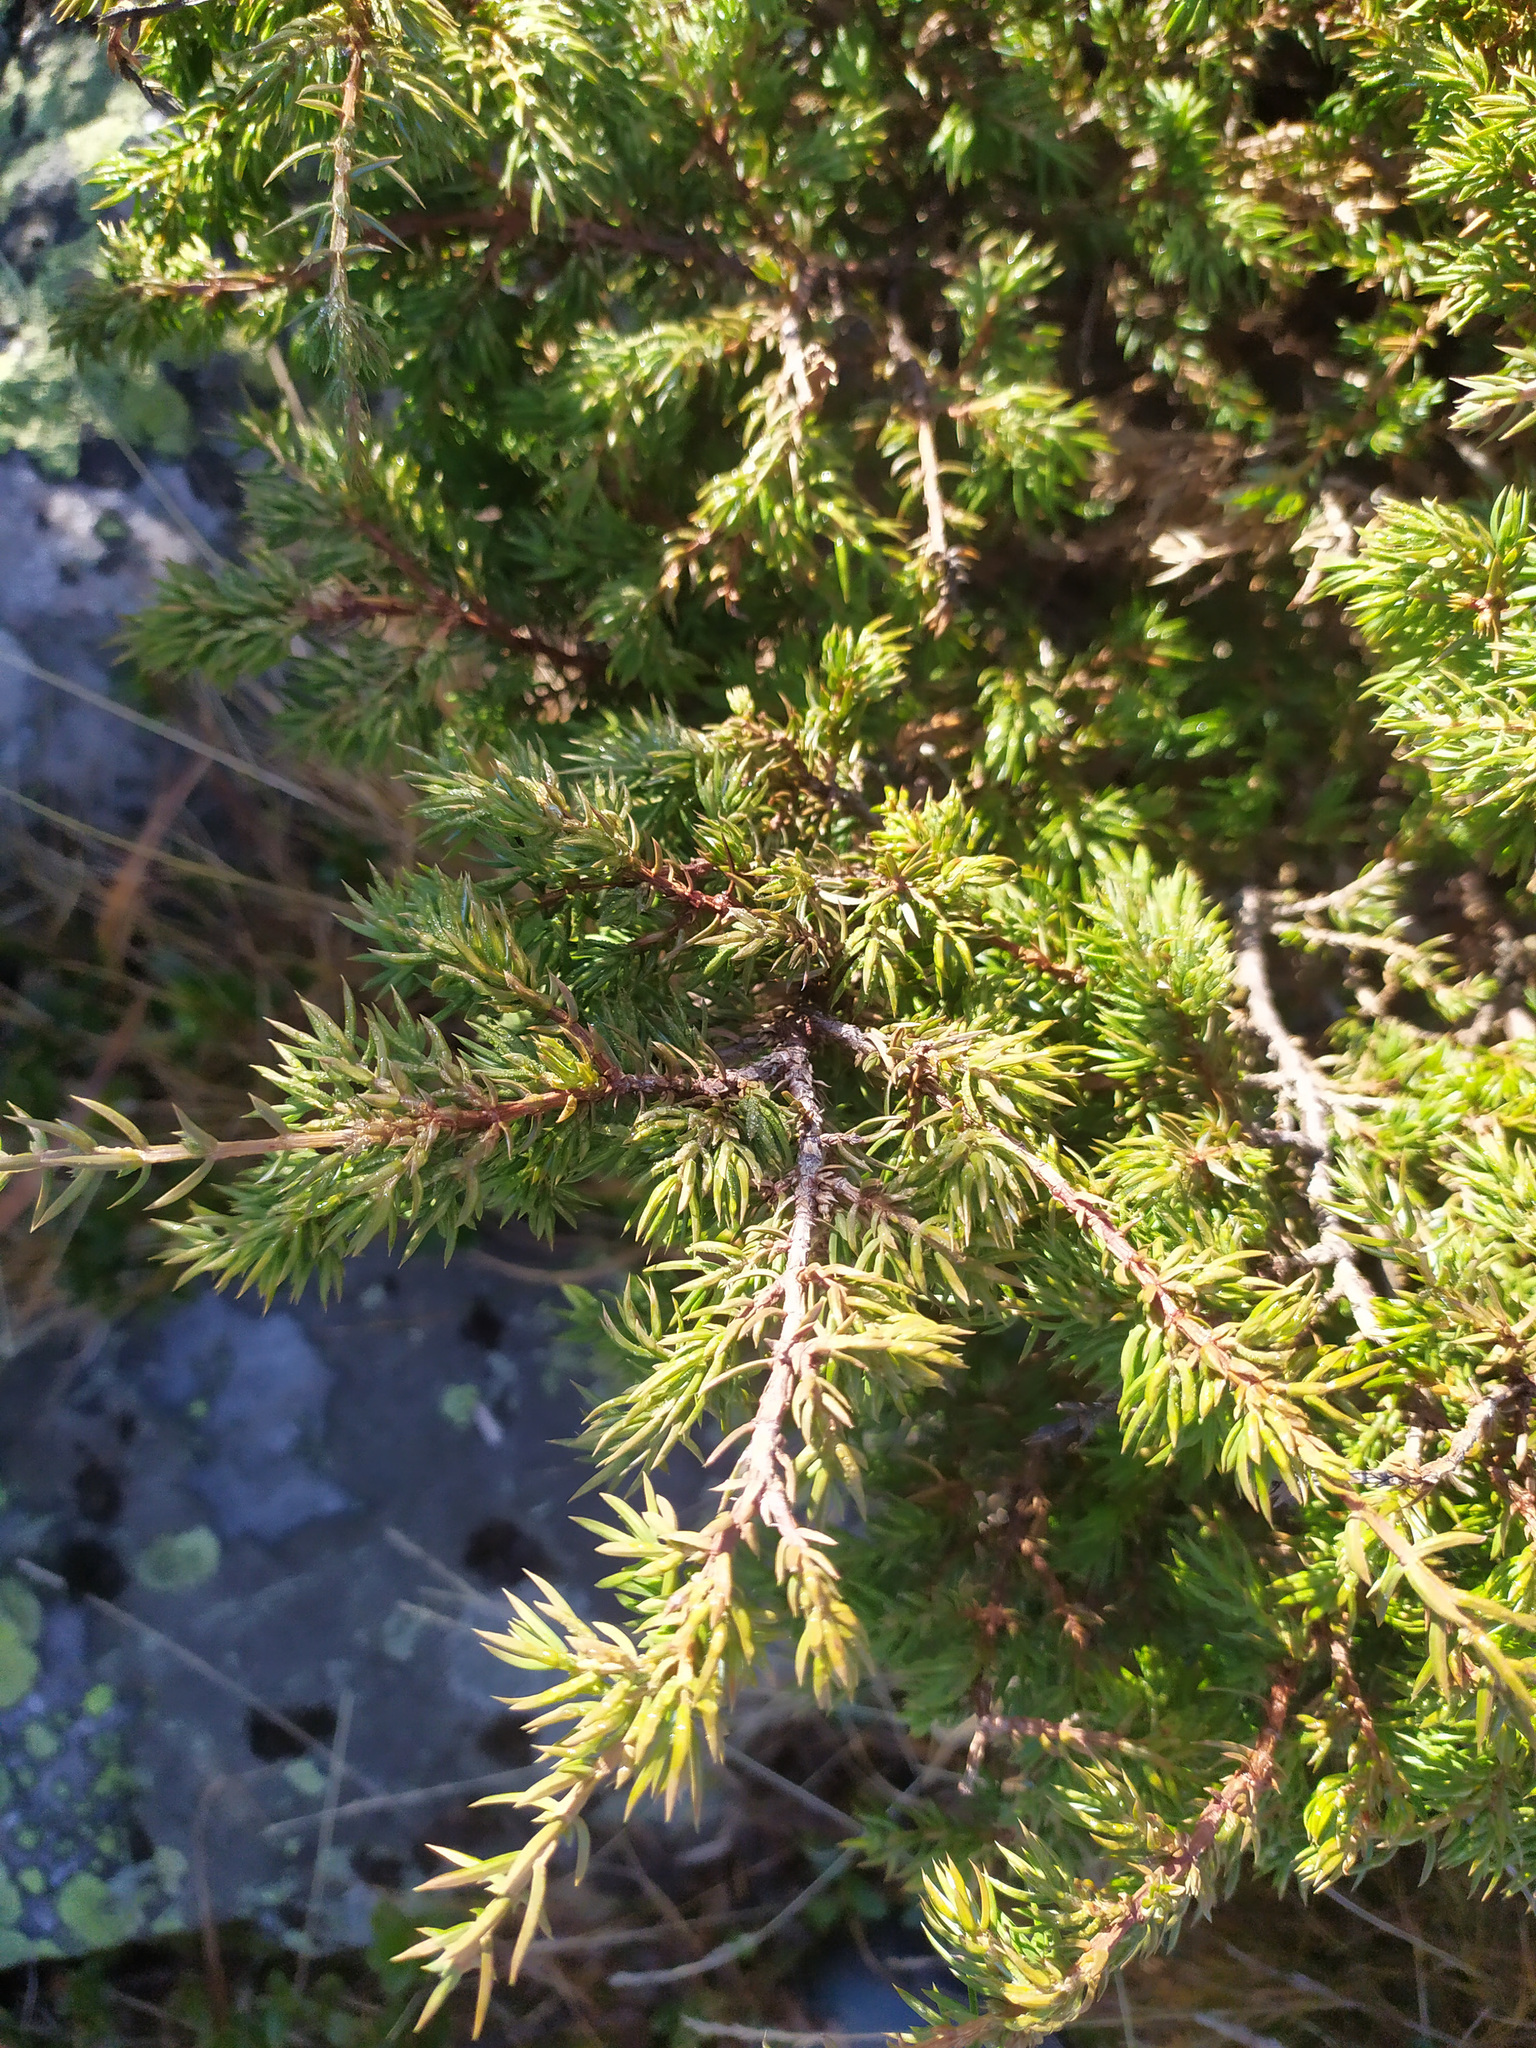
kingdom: Plantae
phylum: Tracheophyta
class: Pinopsida
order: Pinales
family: Cupressaceae
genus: Juniperus
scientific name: Juniperus communis
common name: Common juniper
